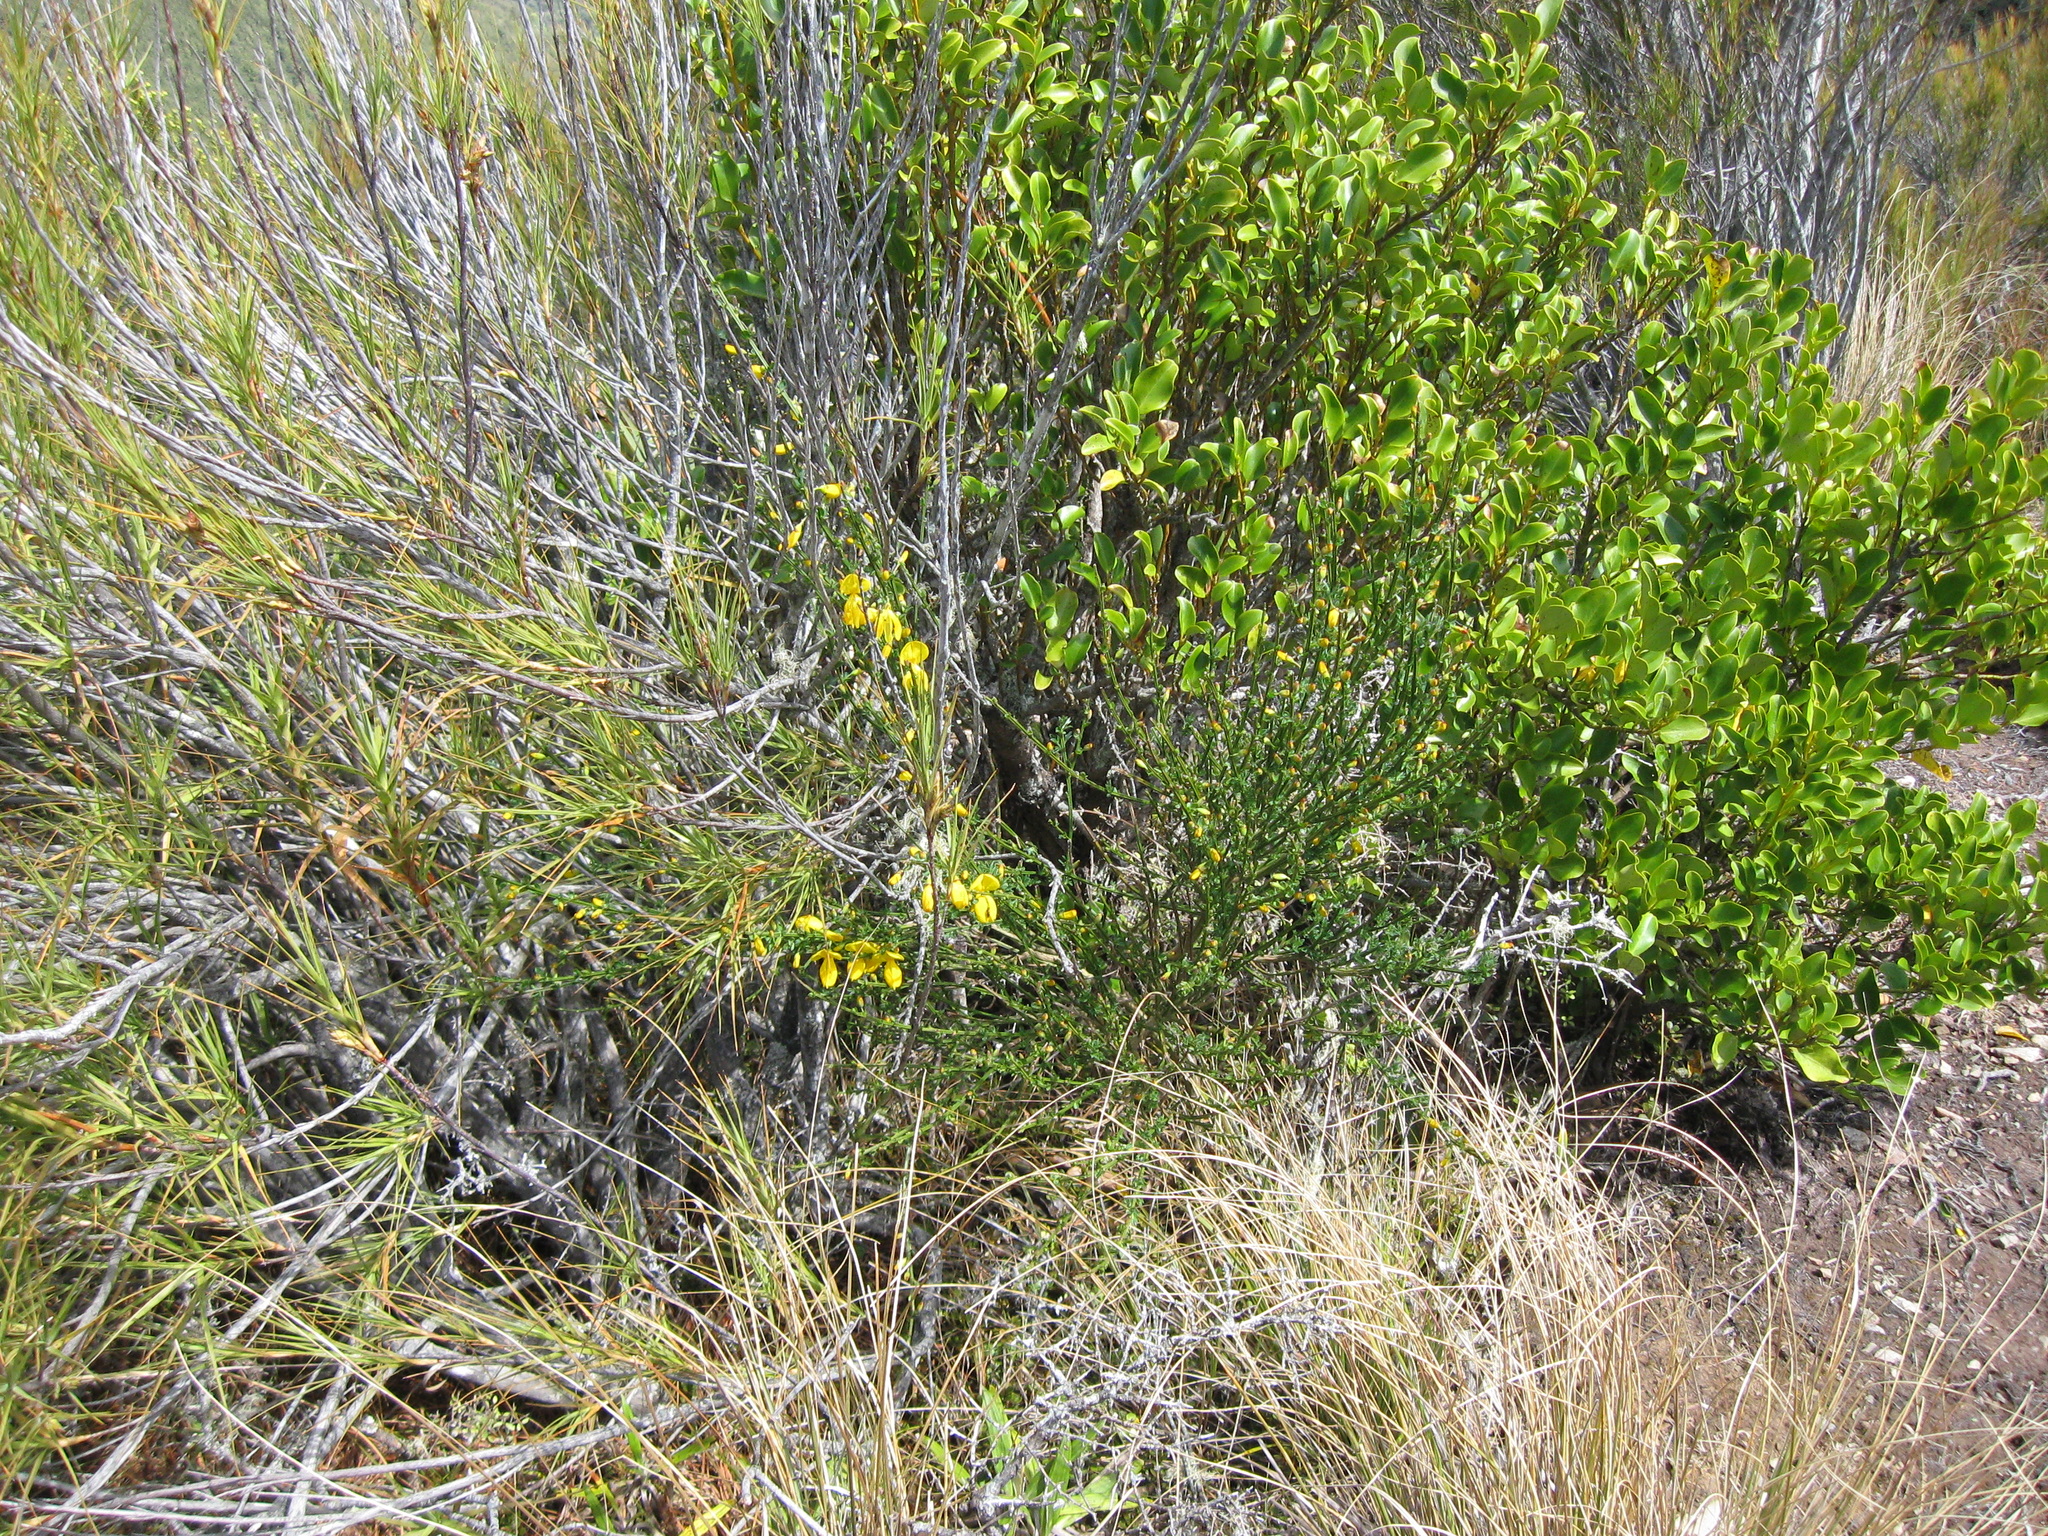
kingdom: Plantae
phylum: Tracheophyta
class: Magnoliopsida
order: Fabales
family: Fabaceae
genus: Cytisus
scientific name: Cytisus scoparius
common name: Scotch broom
